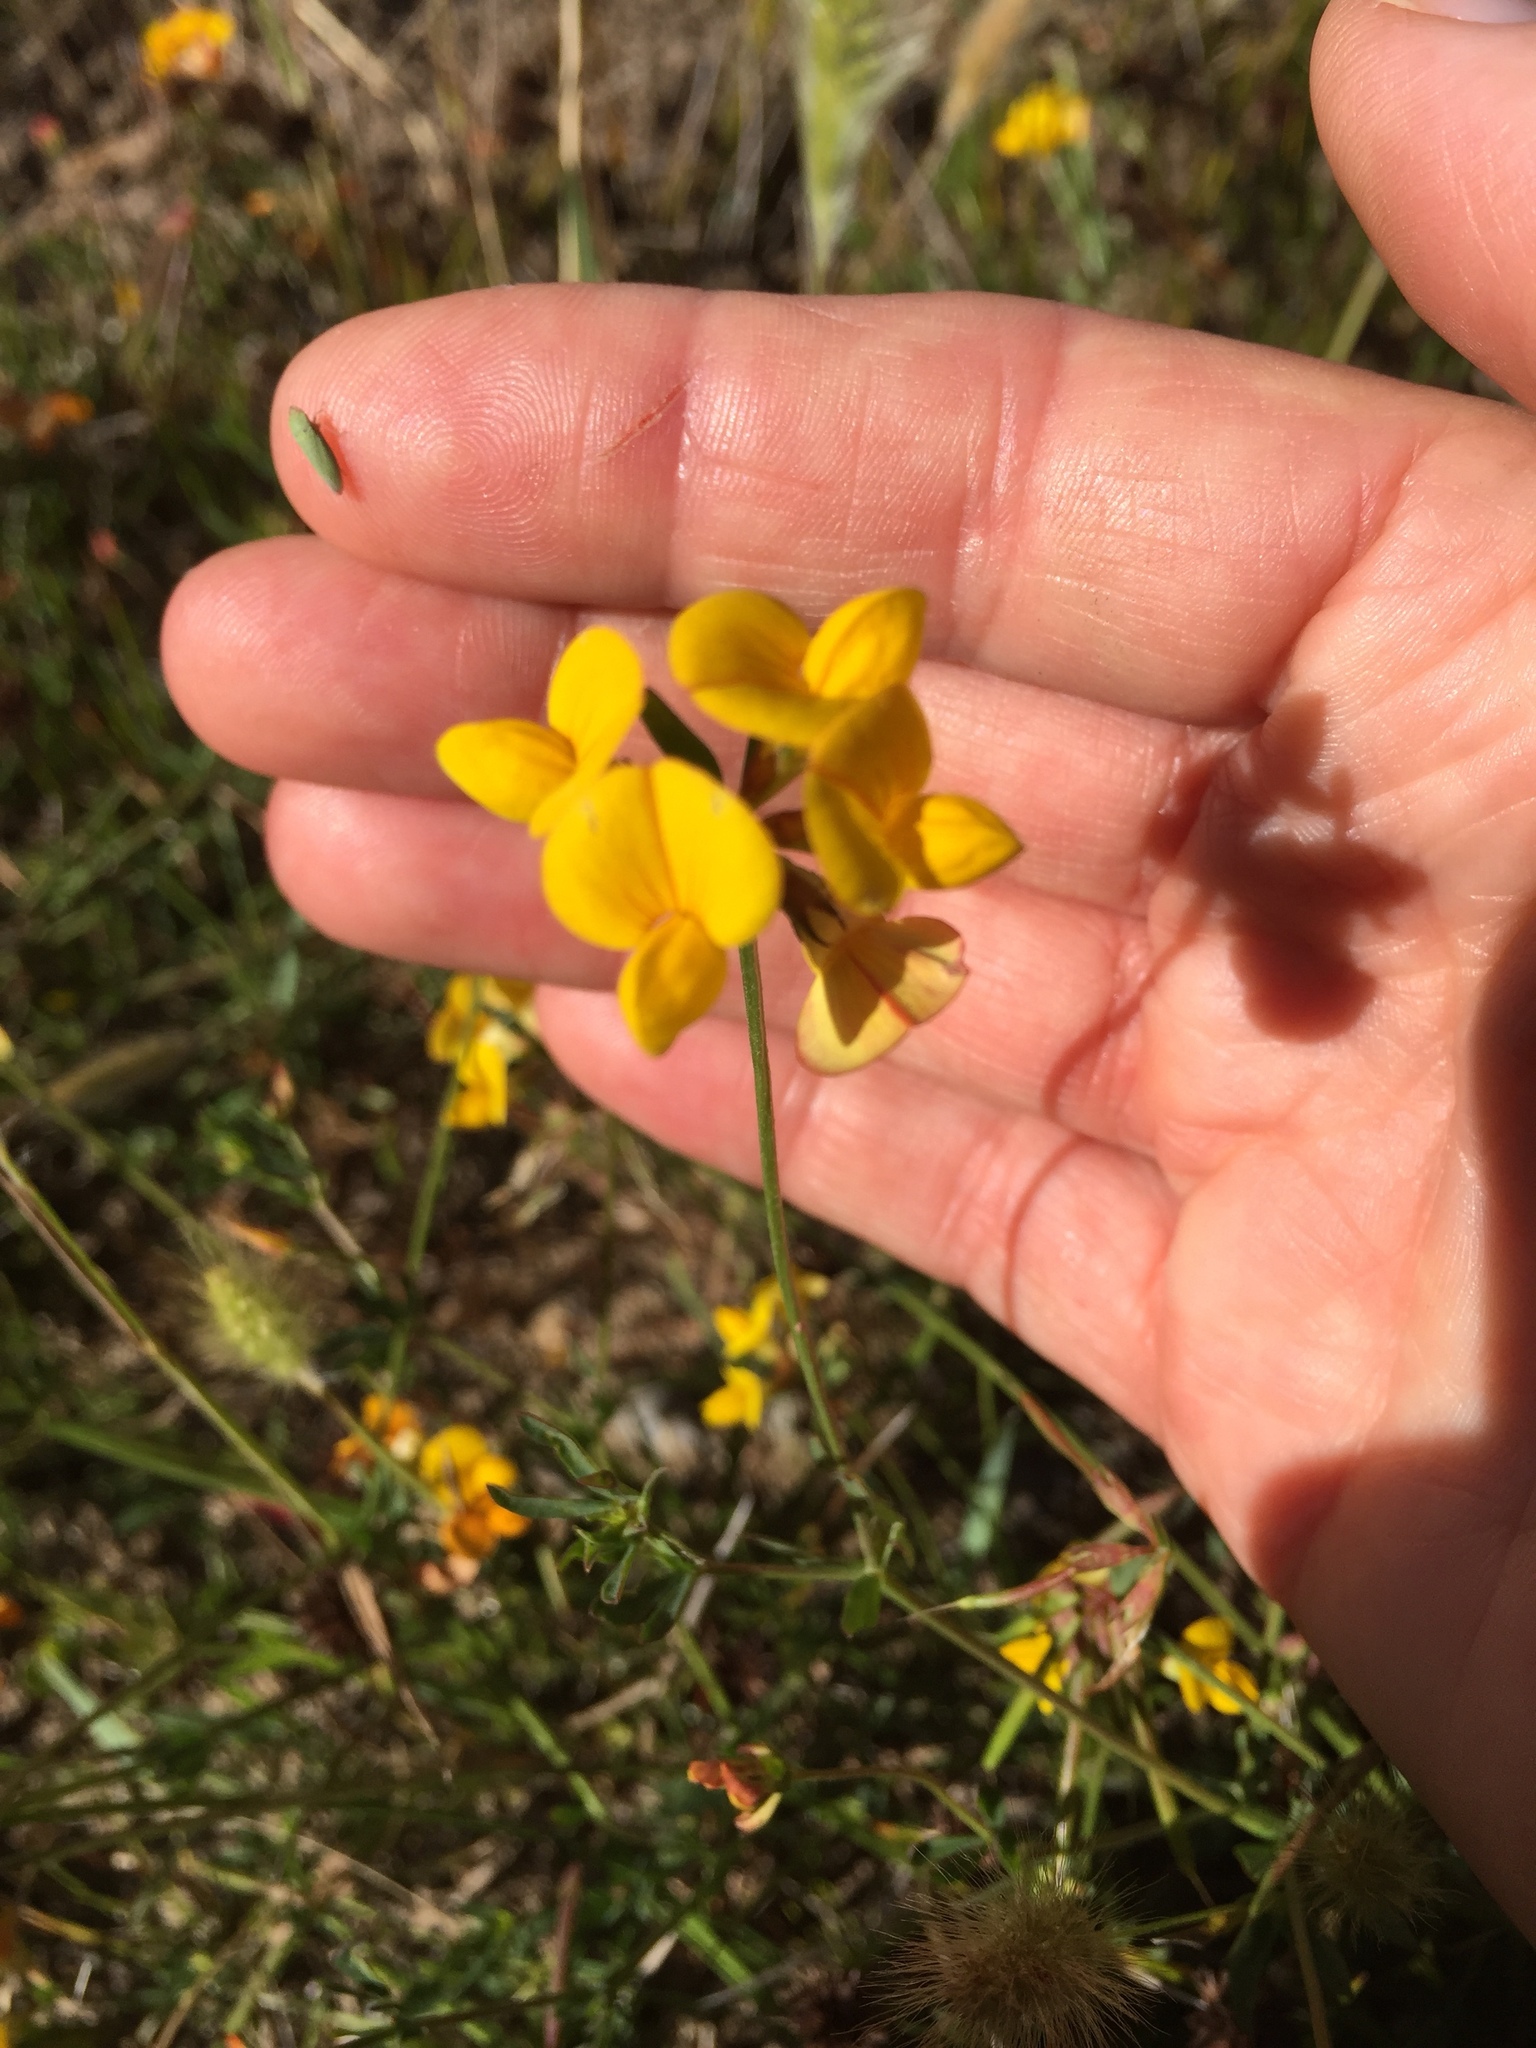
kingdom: Plantae
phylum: Tracheophyta
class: Magnoliopsida
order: Fabales
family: Fabaceae
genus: Lotus
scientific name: Lotus corniculatus
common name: Common bird's-foot-trefoil
